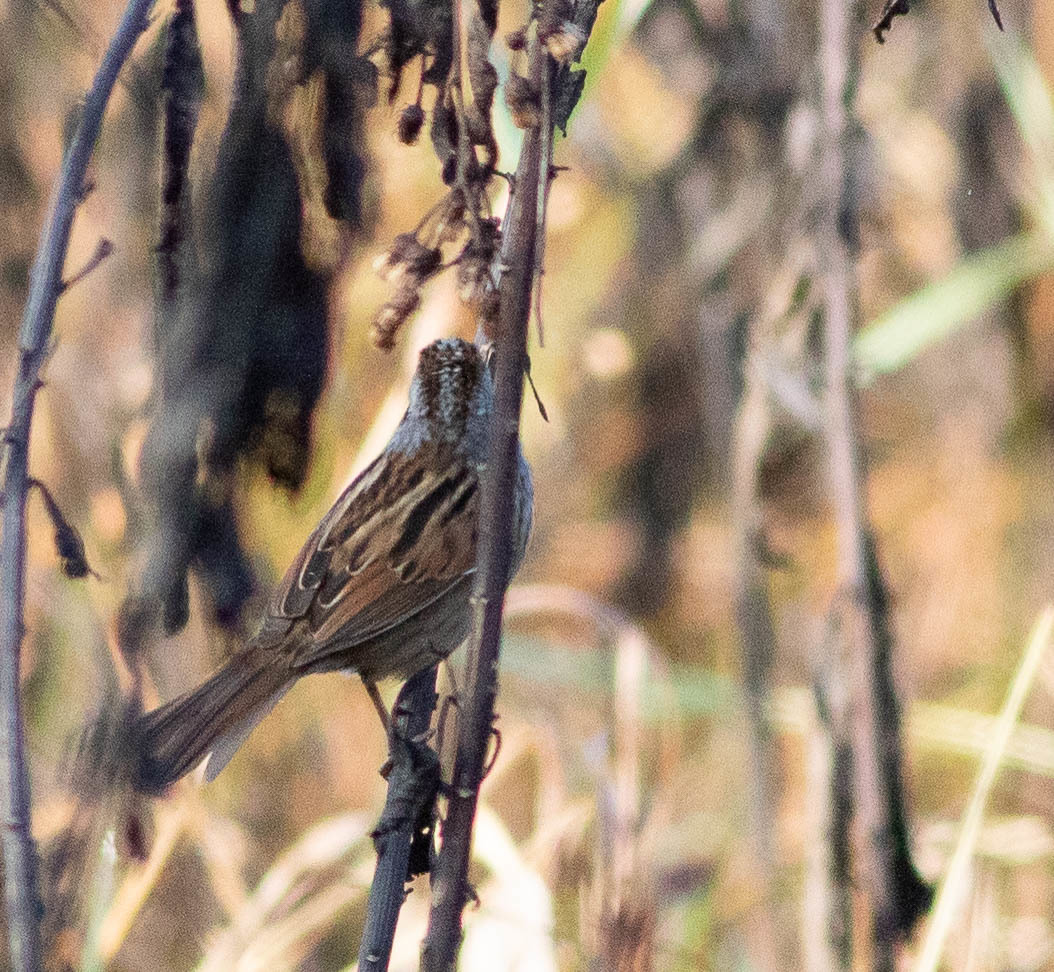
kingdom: Animalia
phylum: Chordata
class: Aves
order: Passeriformes
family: Passerellidae
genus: Melospiza
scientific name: Melospiza georgiana
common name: Swamp sparrow
